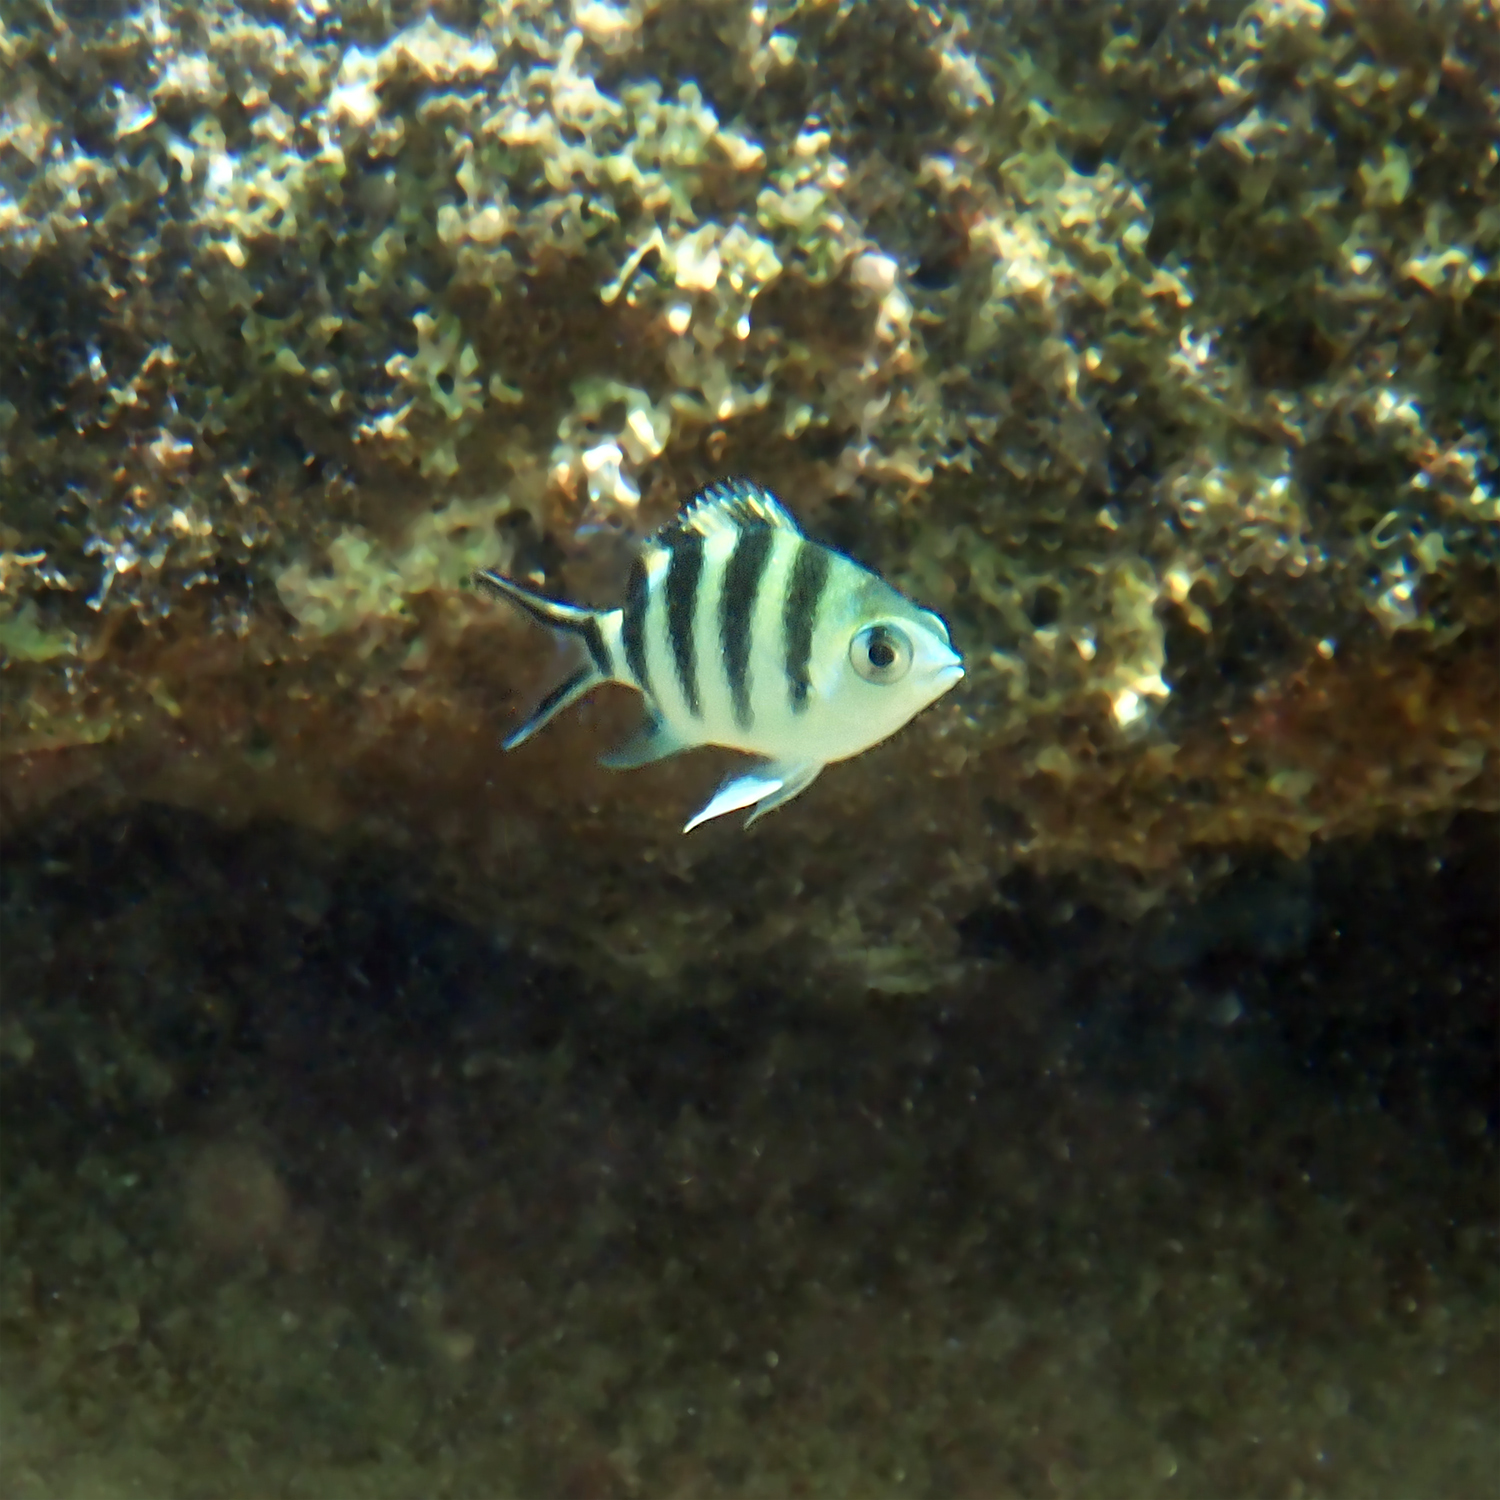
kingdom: Animalia
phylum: Chordata
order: Perciformes
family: Pomacentridae
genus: Abudefduf
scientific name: Abudefduf sexfasciatus
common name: Scissortail sergeant
